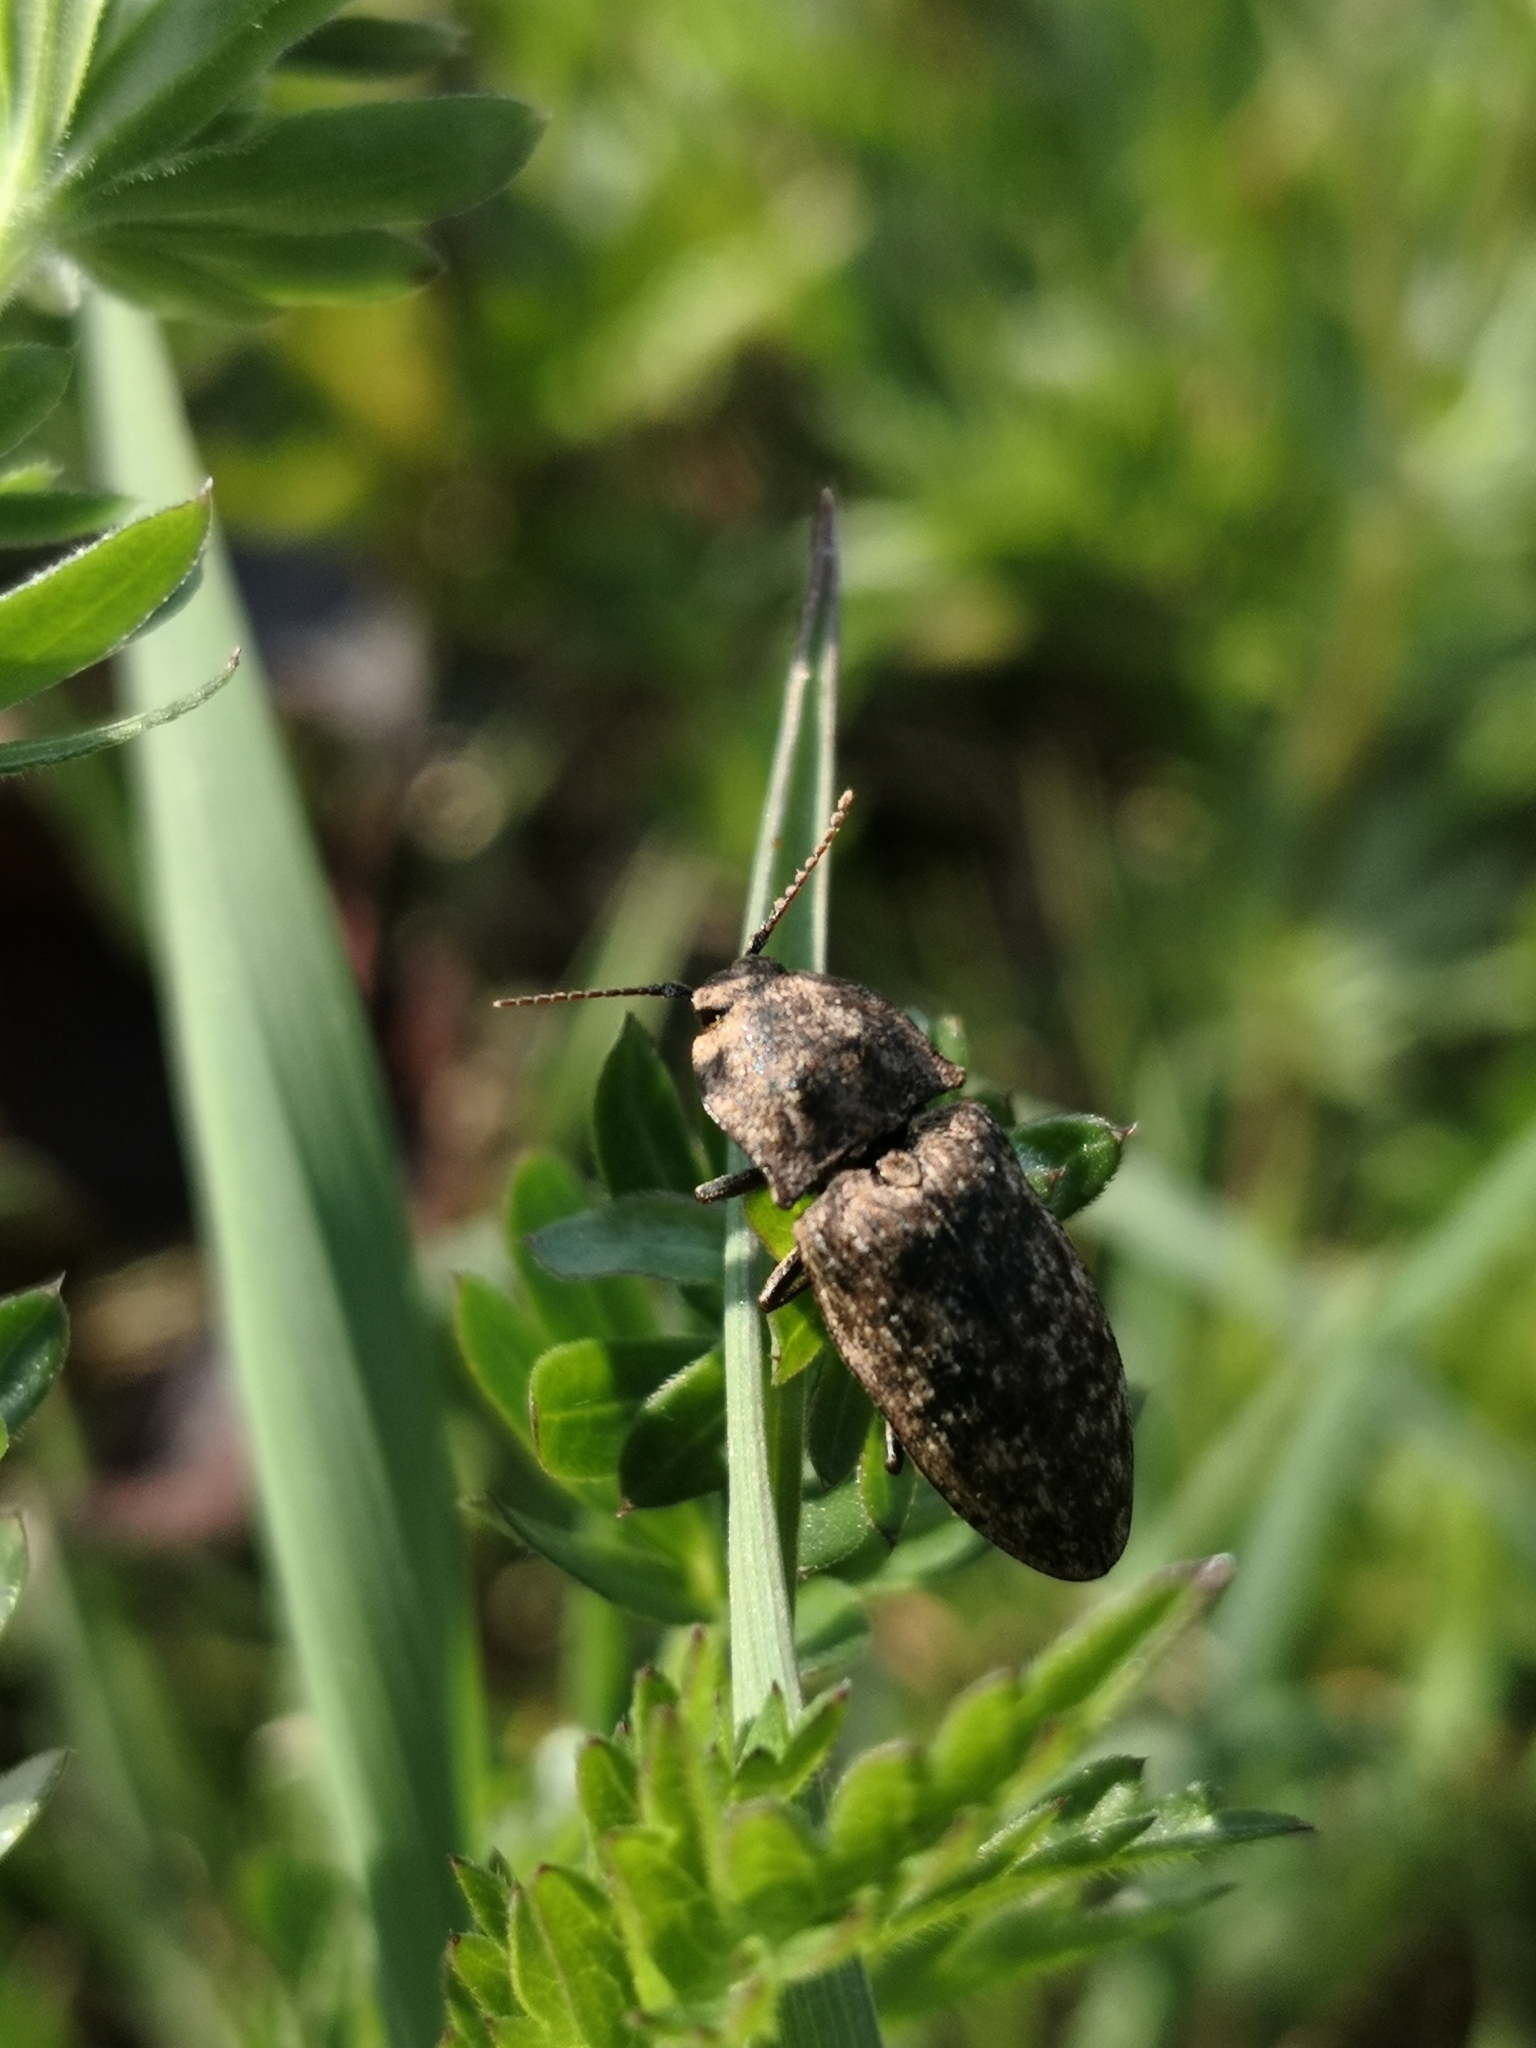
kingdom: Animalia
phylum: Arthropoda
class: Insecta
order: Coleoptera
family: Elateridae
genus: Agrypnus
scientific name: Agrypnus murinus
